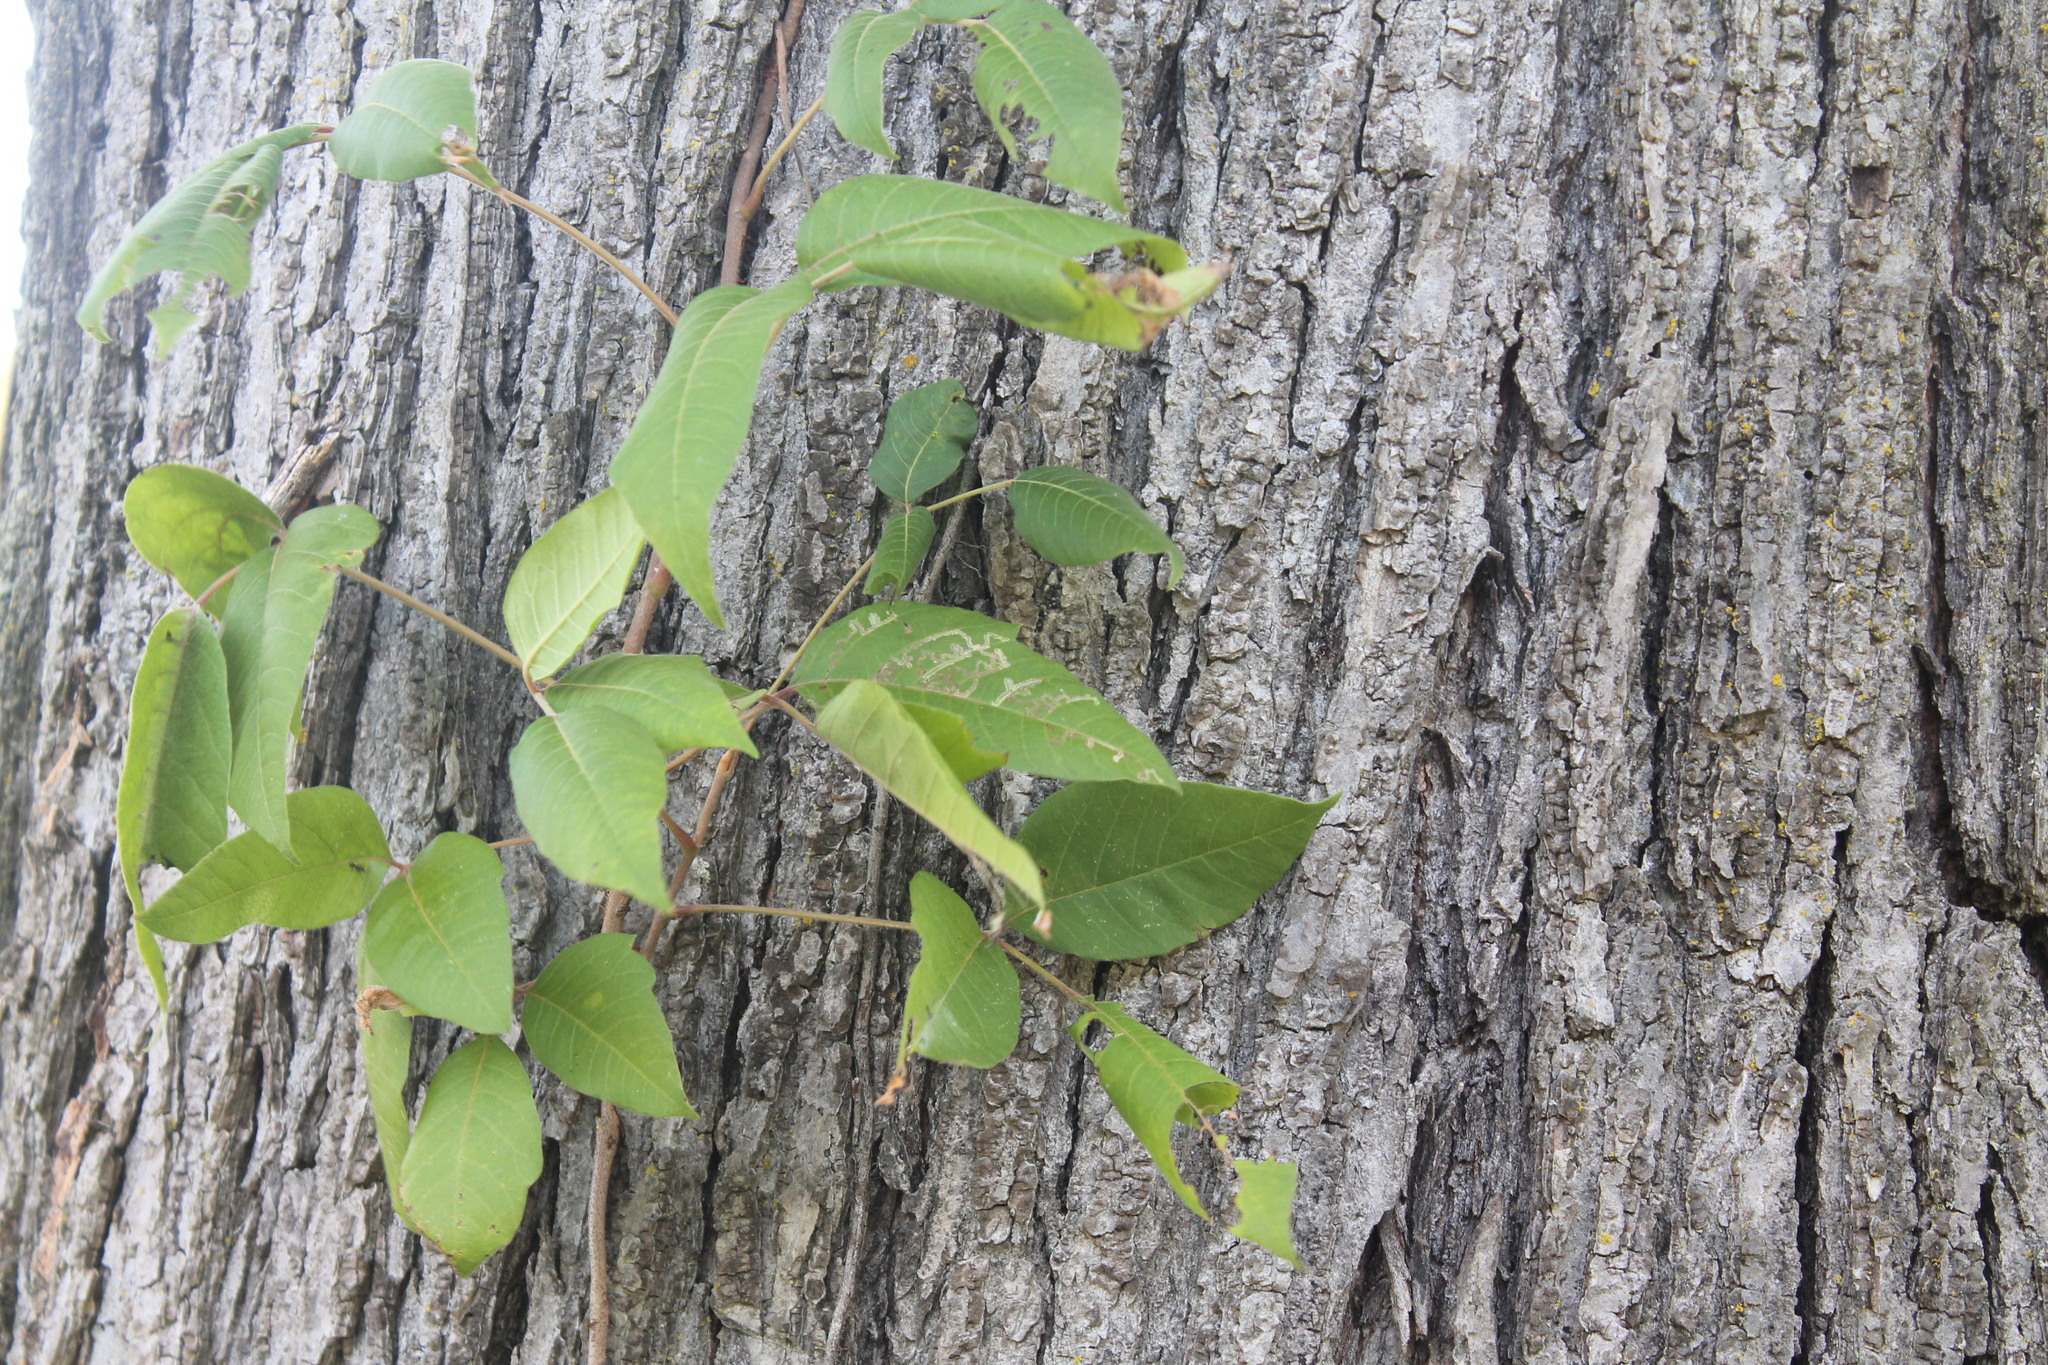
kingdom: Animalia
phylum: Arthropoda
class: Insecta
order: Lepidoptera
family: Gracillariidae
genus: Cameraria
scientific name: Cameraria guttifinitella
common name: Poison ivy leaf-miner moth
